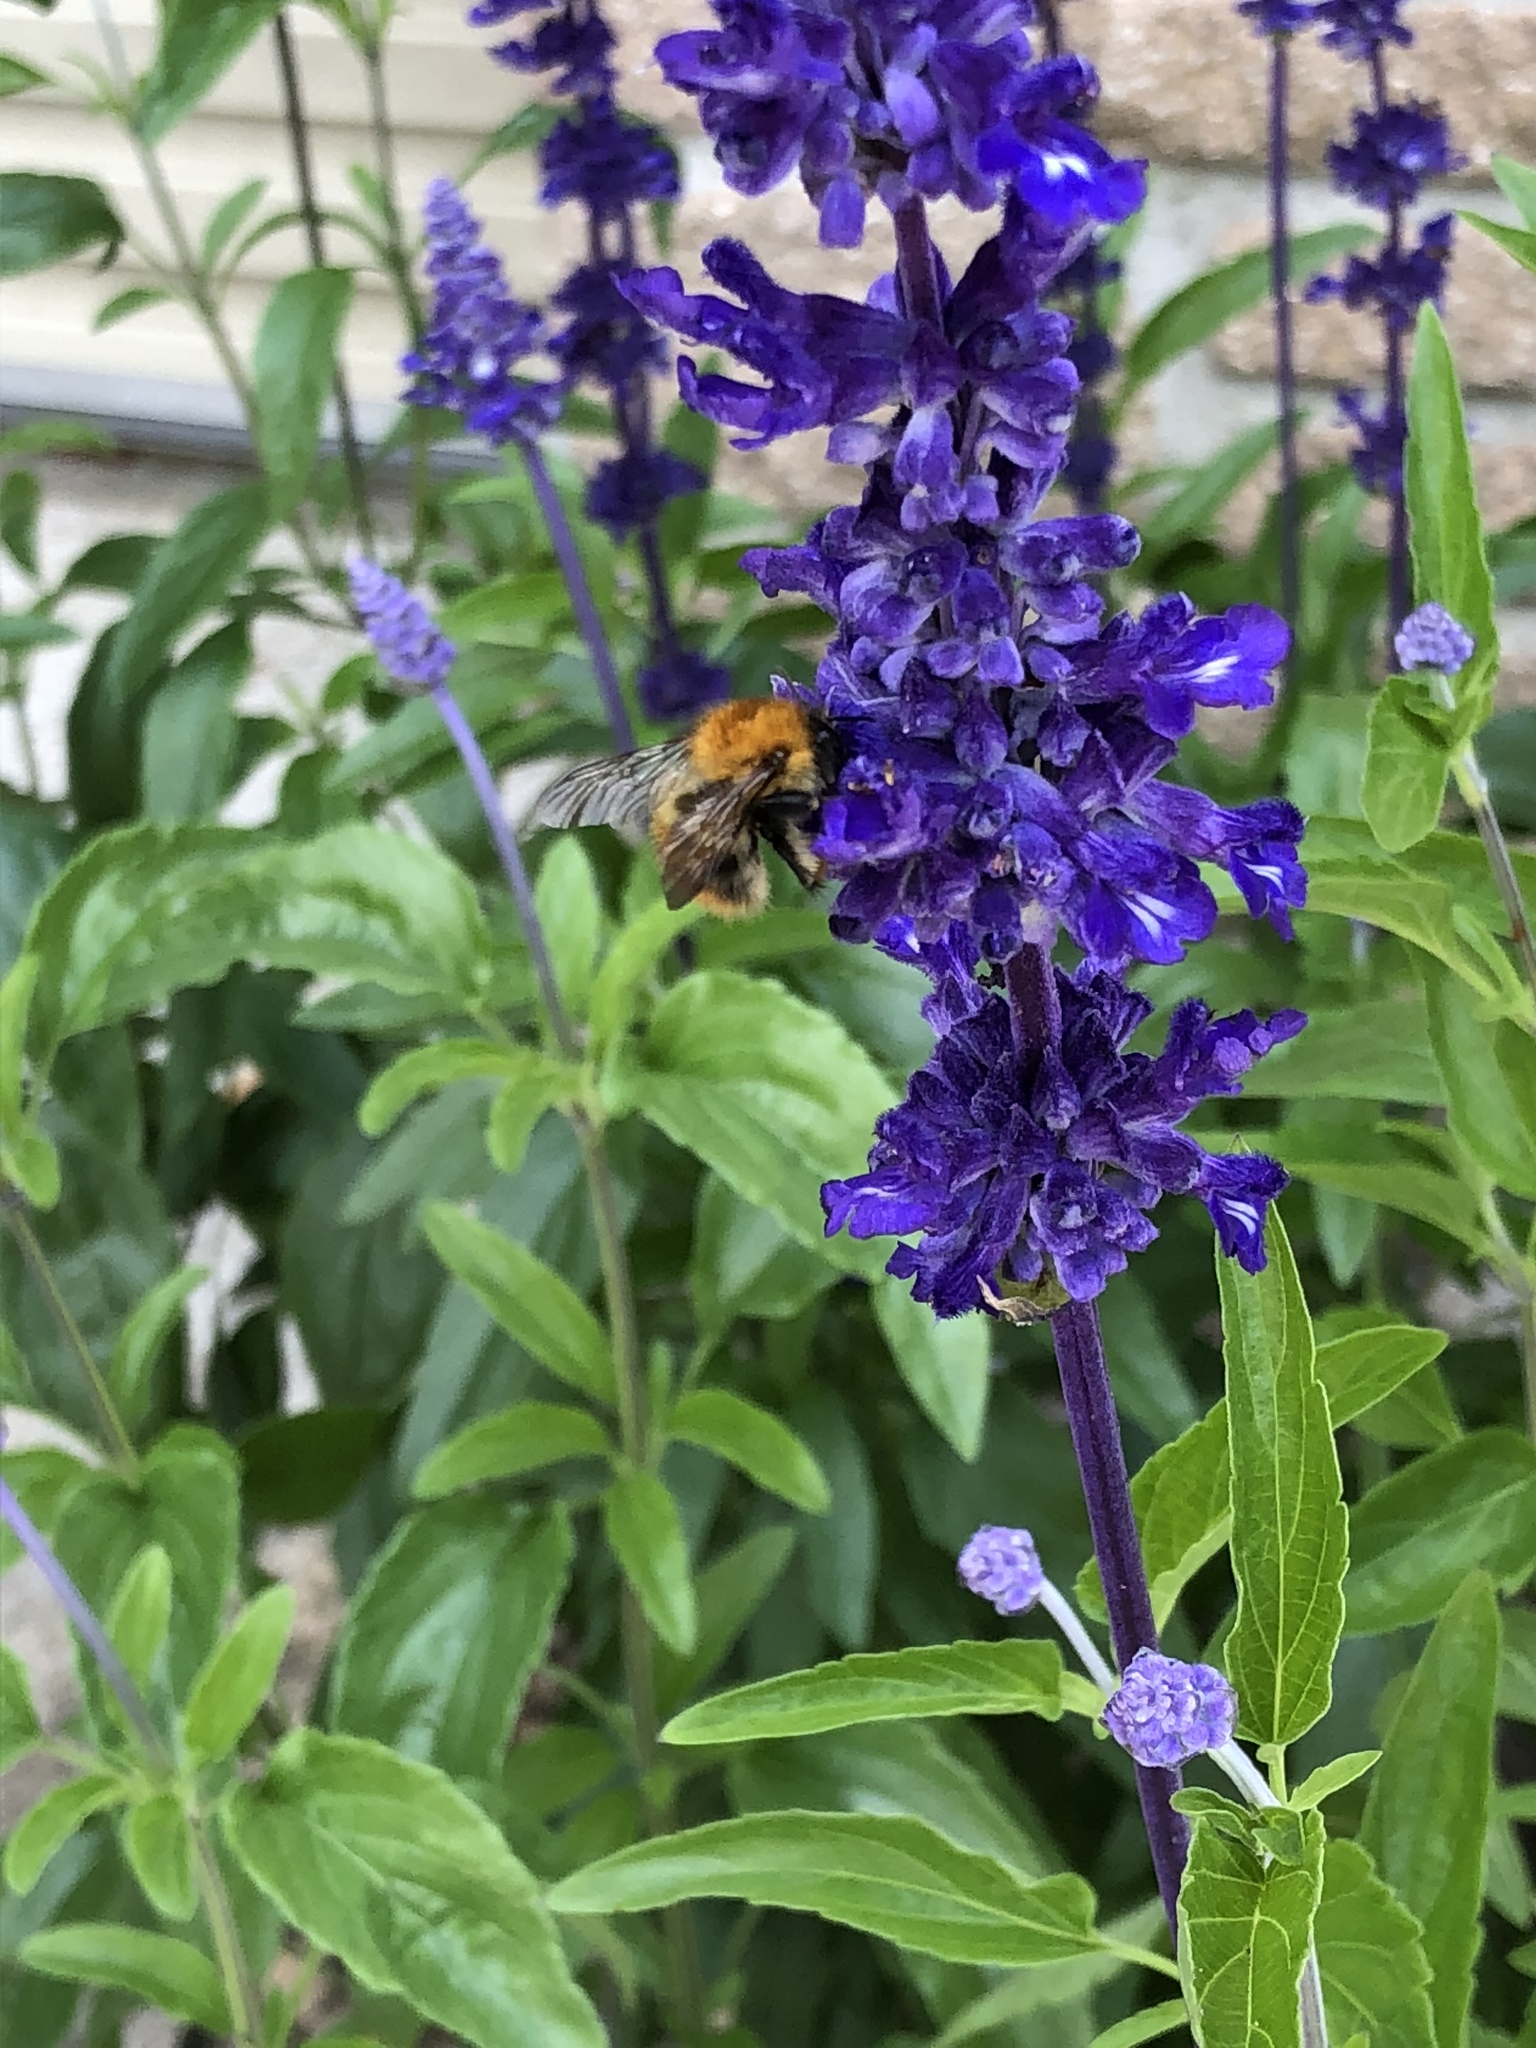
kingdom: Animalia
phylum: Arthropoda
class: Insecta
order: Hymenoptera
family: Apidae
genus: Bombus
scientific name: Bombus pascuorum
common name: Common carder bee
